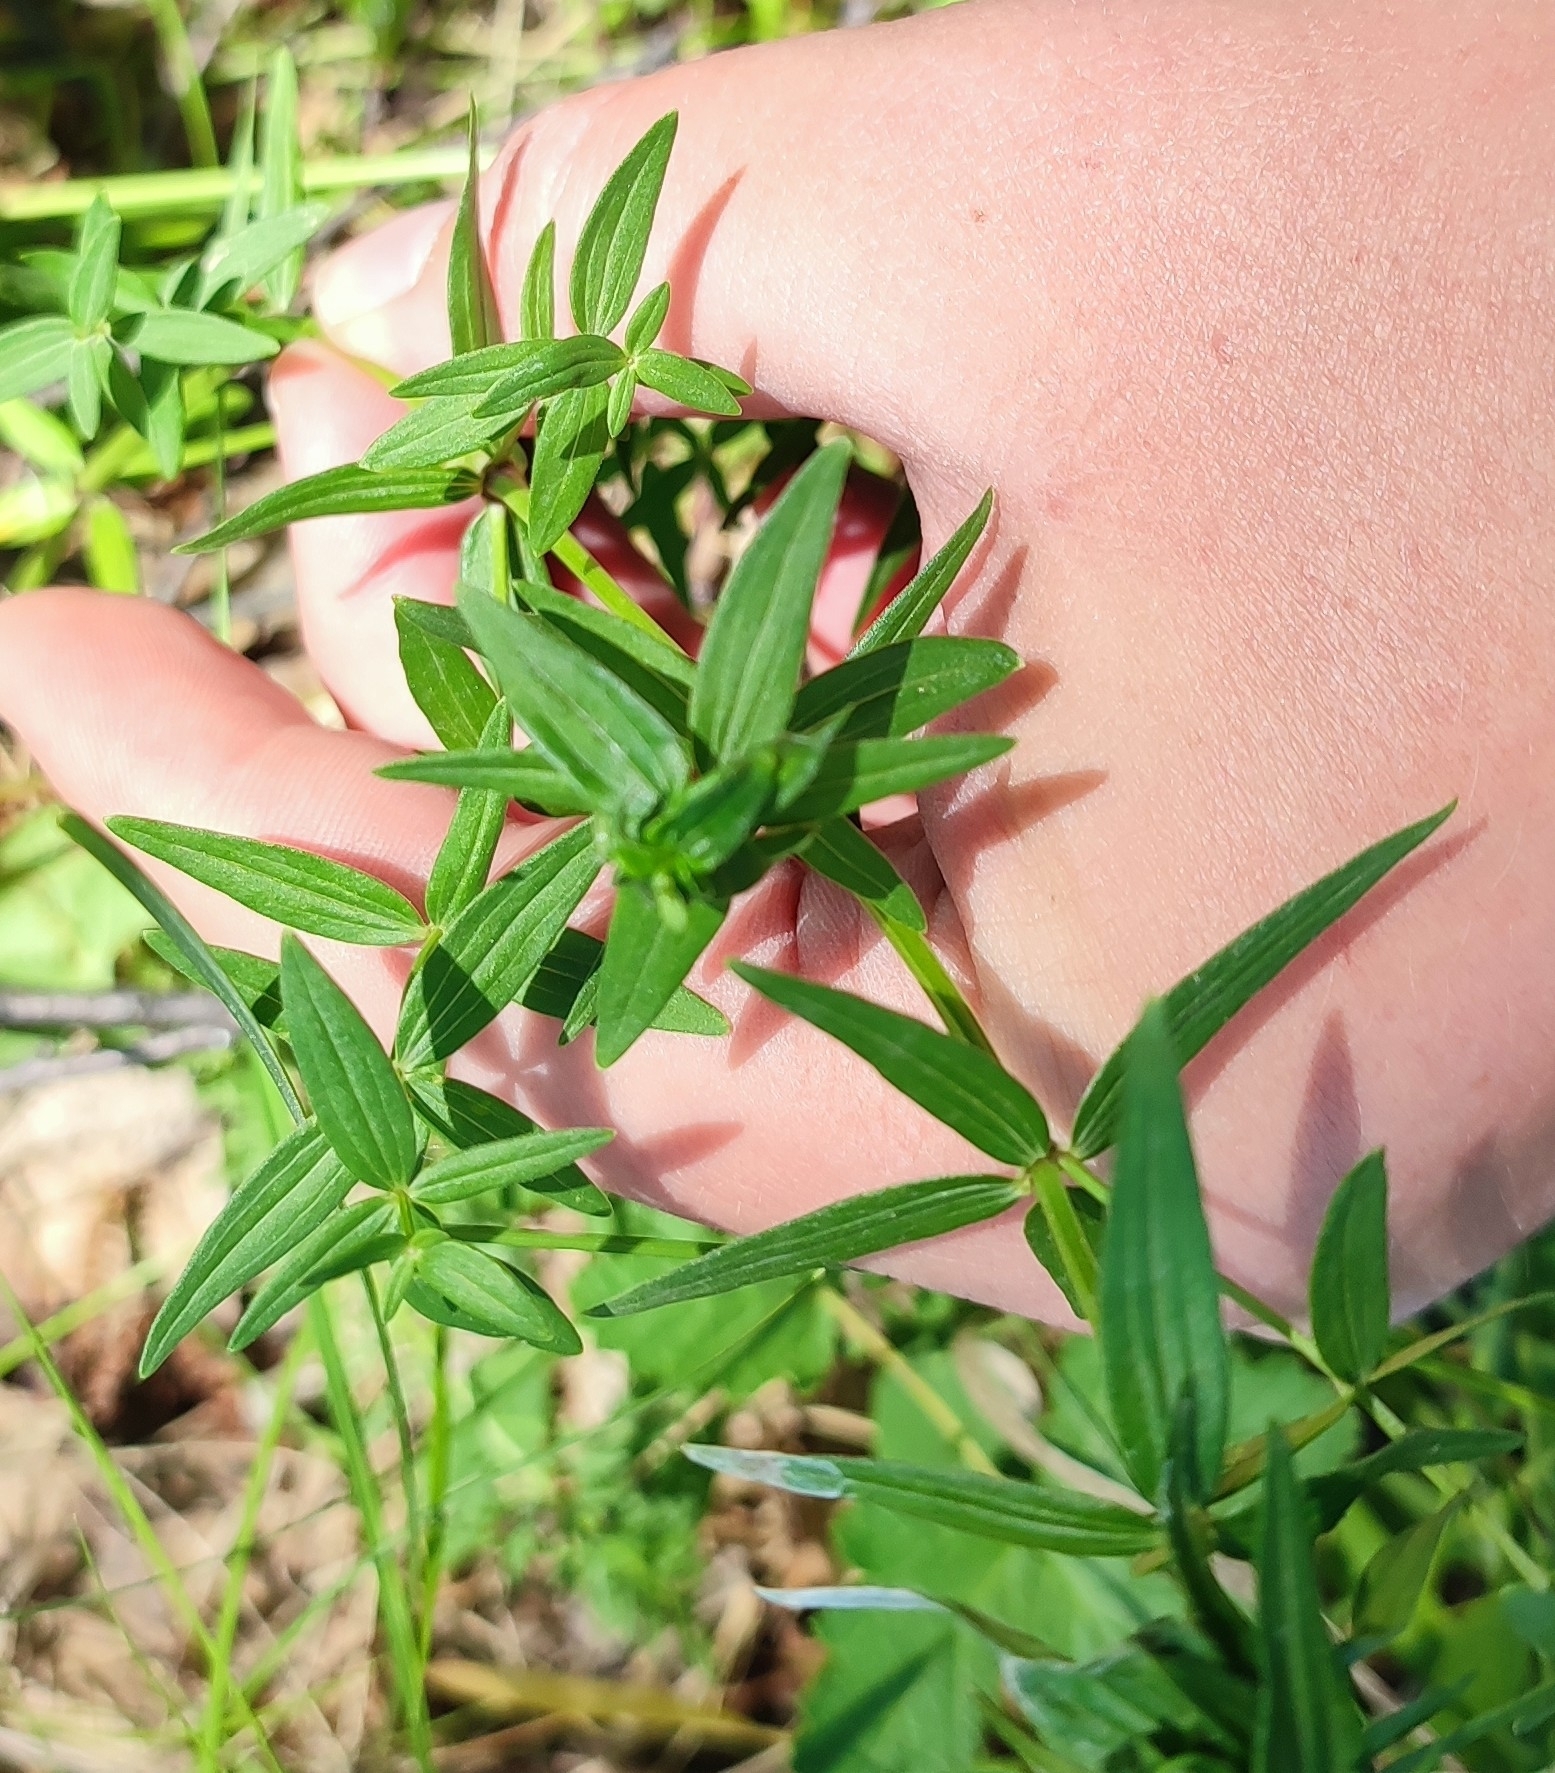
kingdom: Plantae
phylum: Tracheophyta
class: Magnoliopsida
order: Gentianales
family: Rubiaceae
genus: Galium
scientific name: Galium boreale
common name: Northern bedstraw
